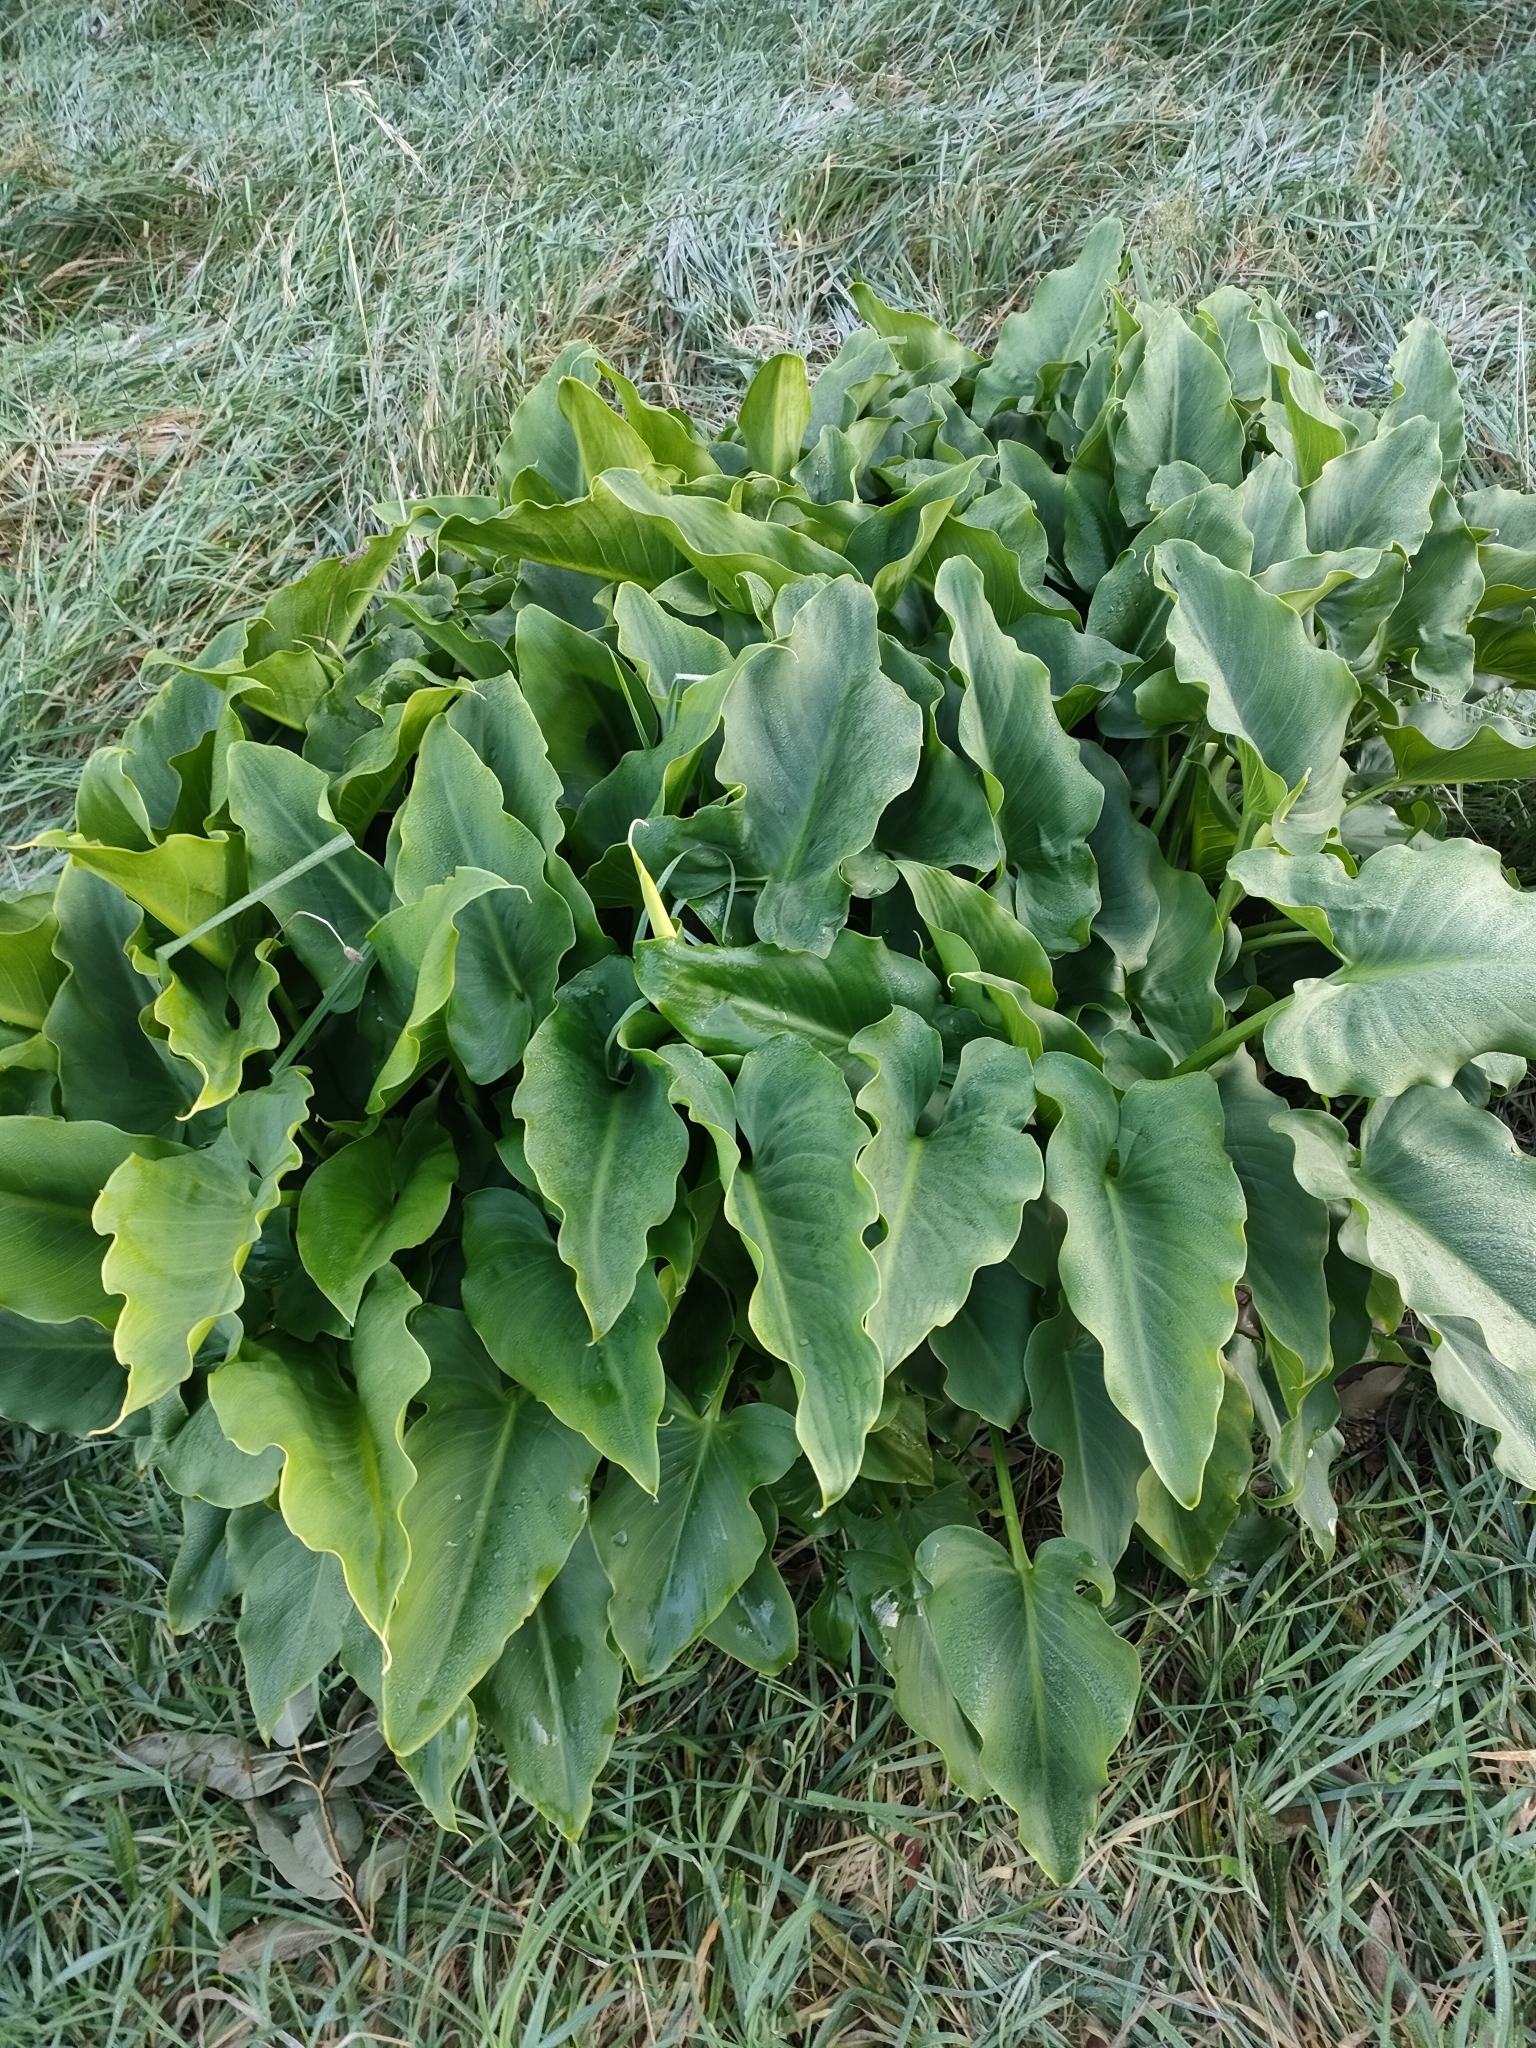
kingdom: Plantae
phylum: Tracheophyta
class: Liliopsida
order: Alismatales
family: Araceae
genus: Zantedeschia
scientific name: Zantedeschia aethiopica
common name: Altar-lily
